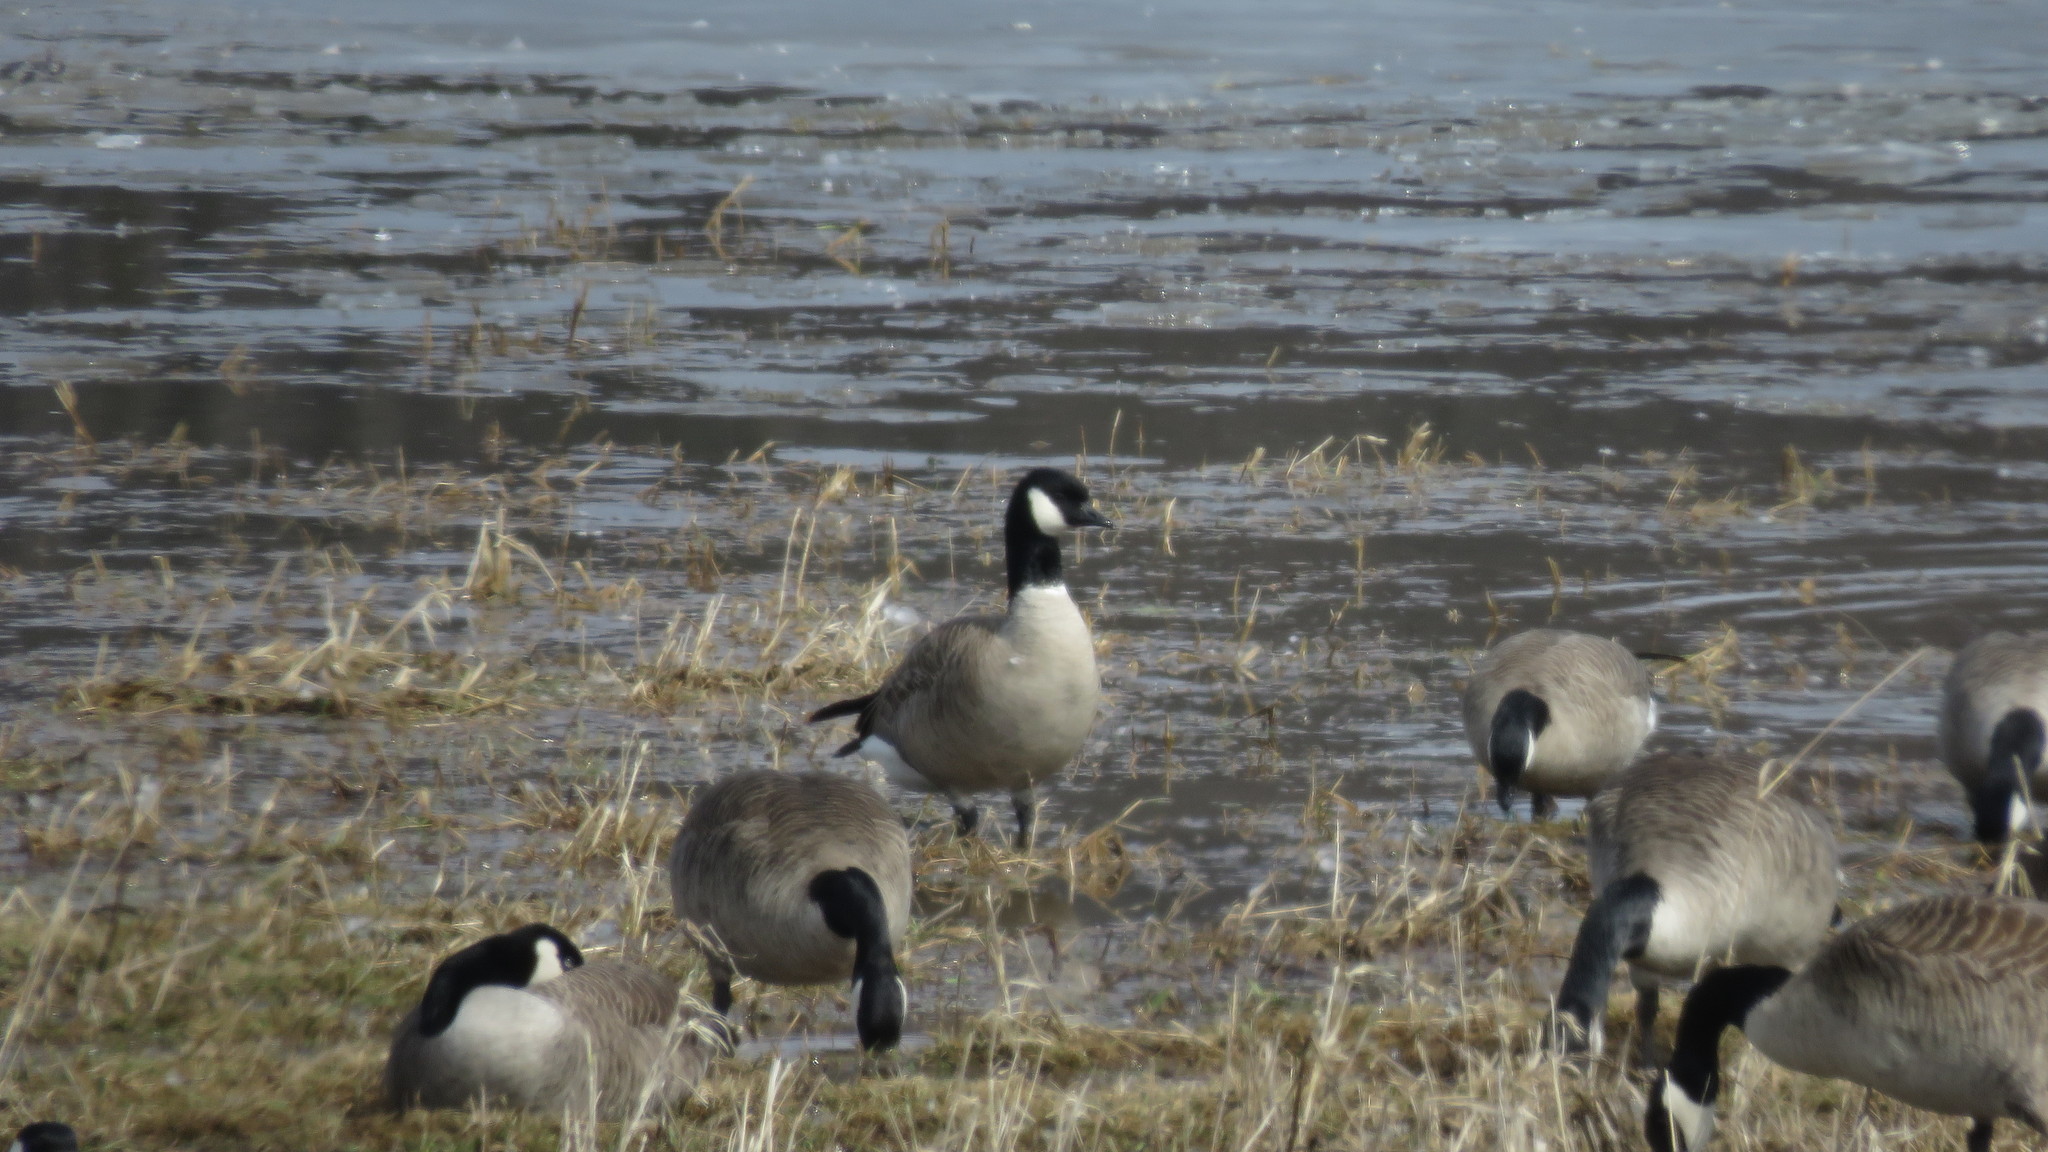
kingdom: Animalia
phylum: Chordata
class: Aves
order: Anseriformes
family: Anatidae
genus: Branta
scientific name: Branta hutchinsii
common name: Cackling goose
